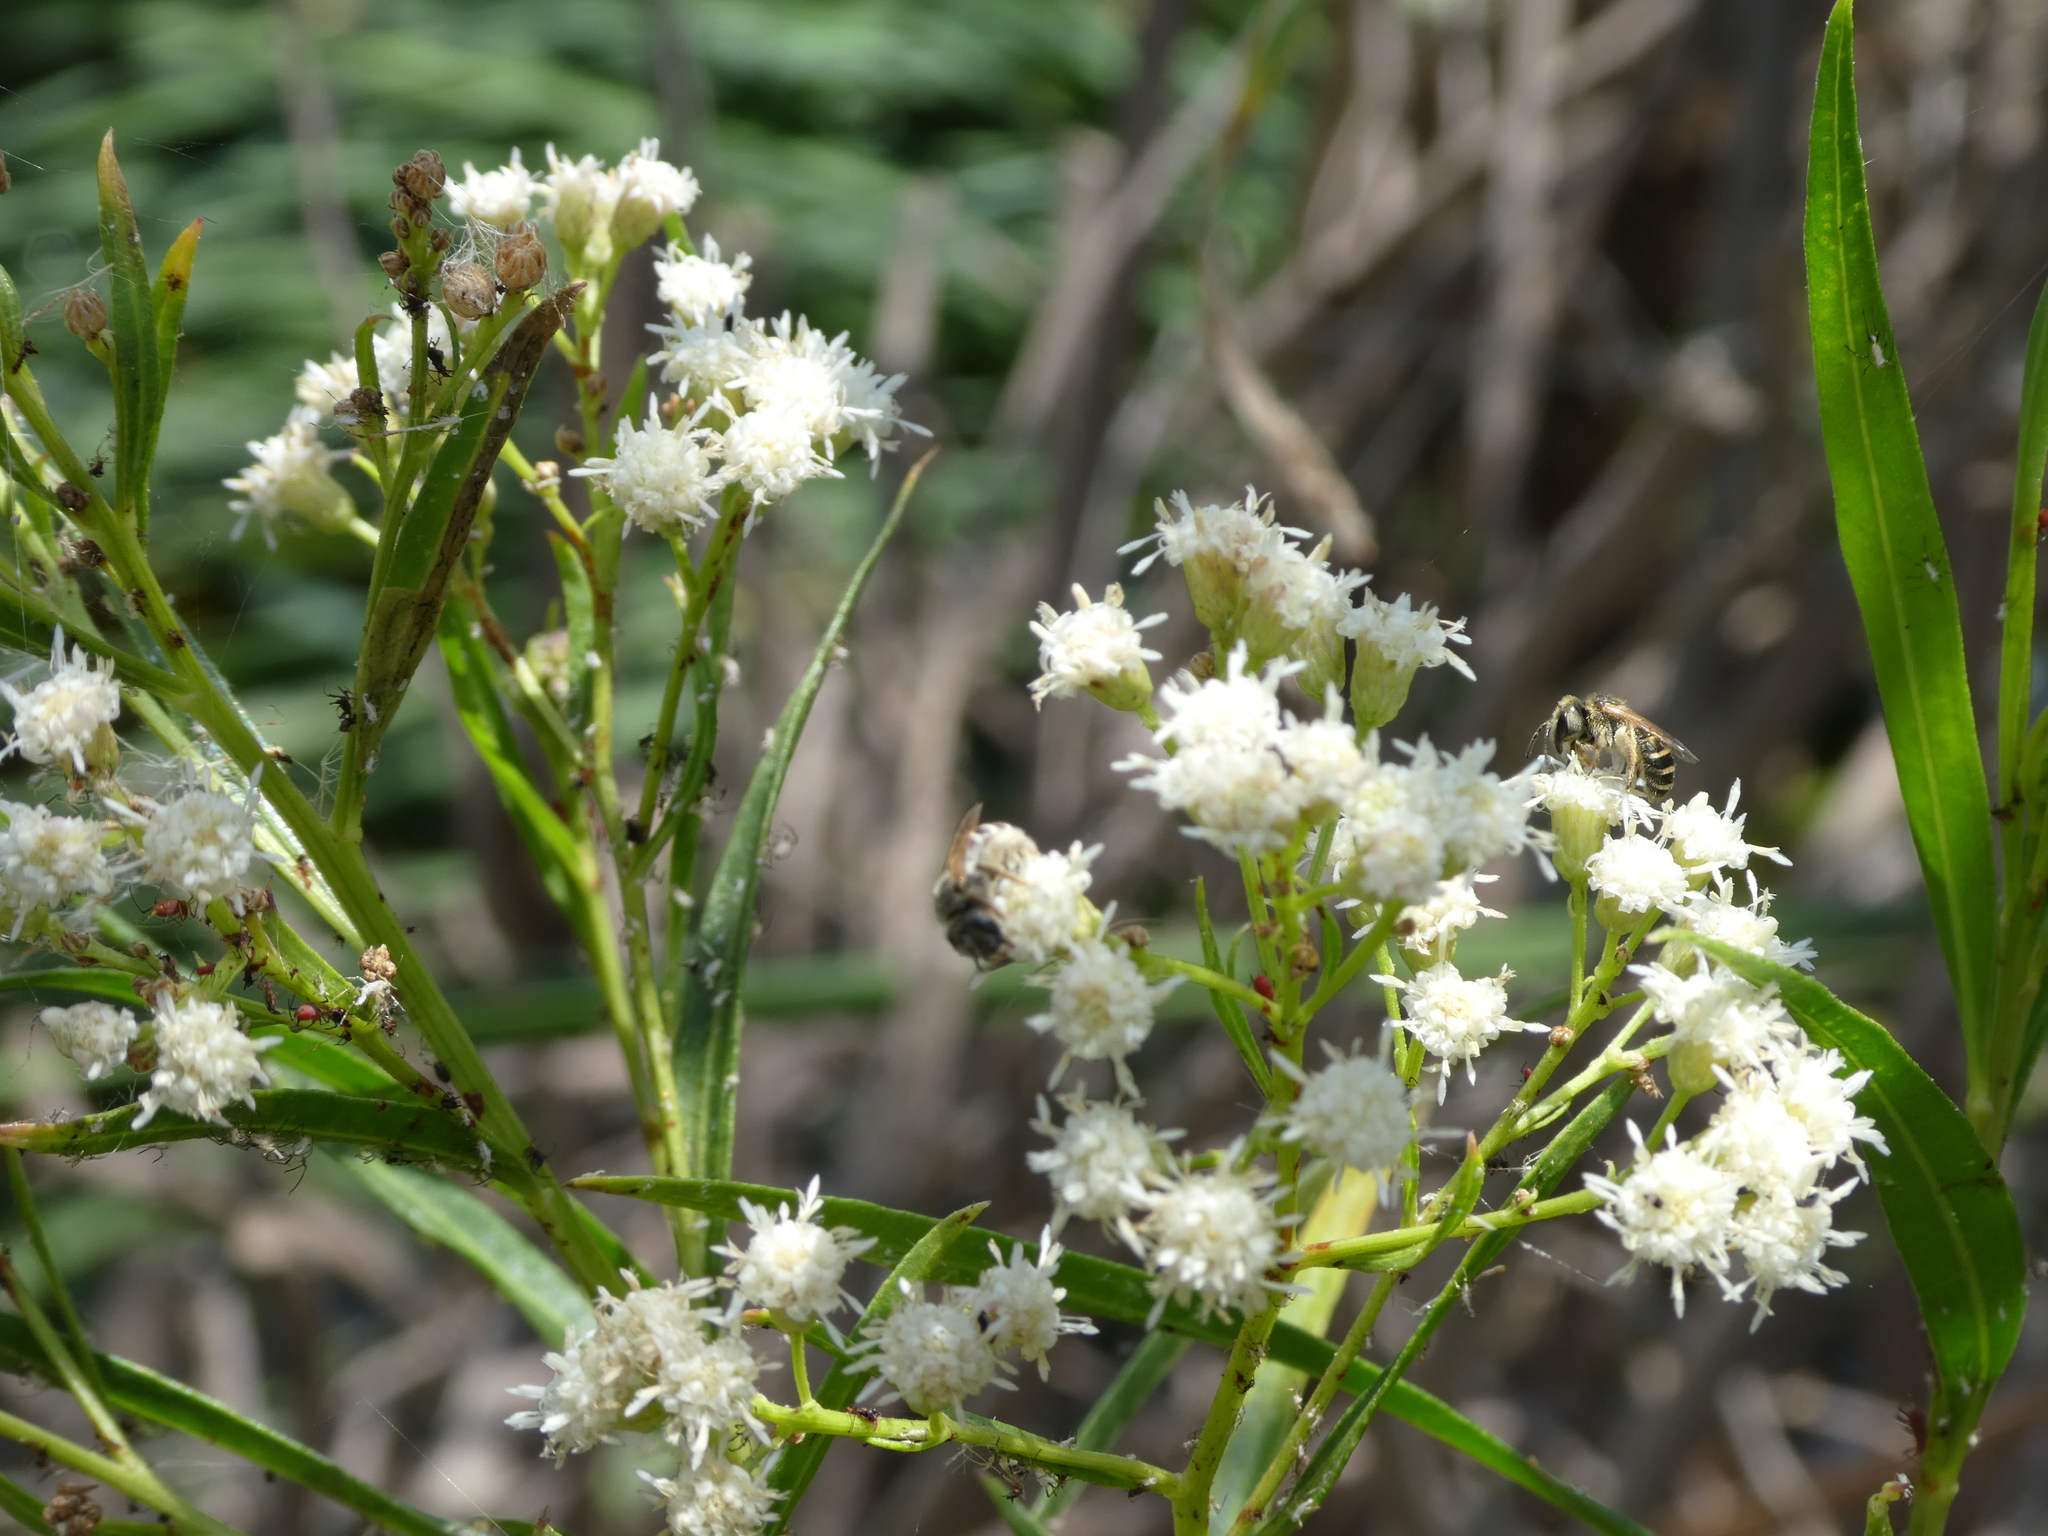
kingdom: Animalia
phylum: Arthropoda
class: Insecta
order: Hymenoptera
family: Halictidae
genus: Halictus
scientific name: Halictus ligatus
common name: Ligated furrow bee
